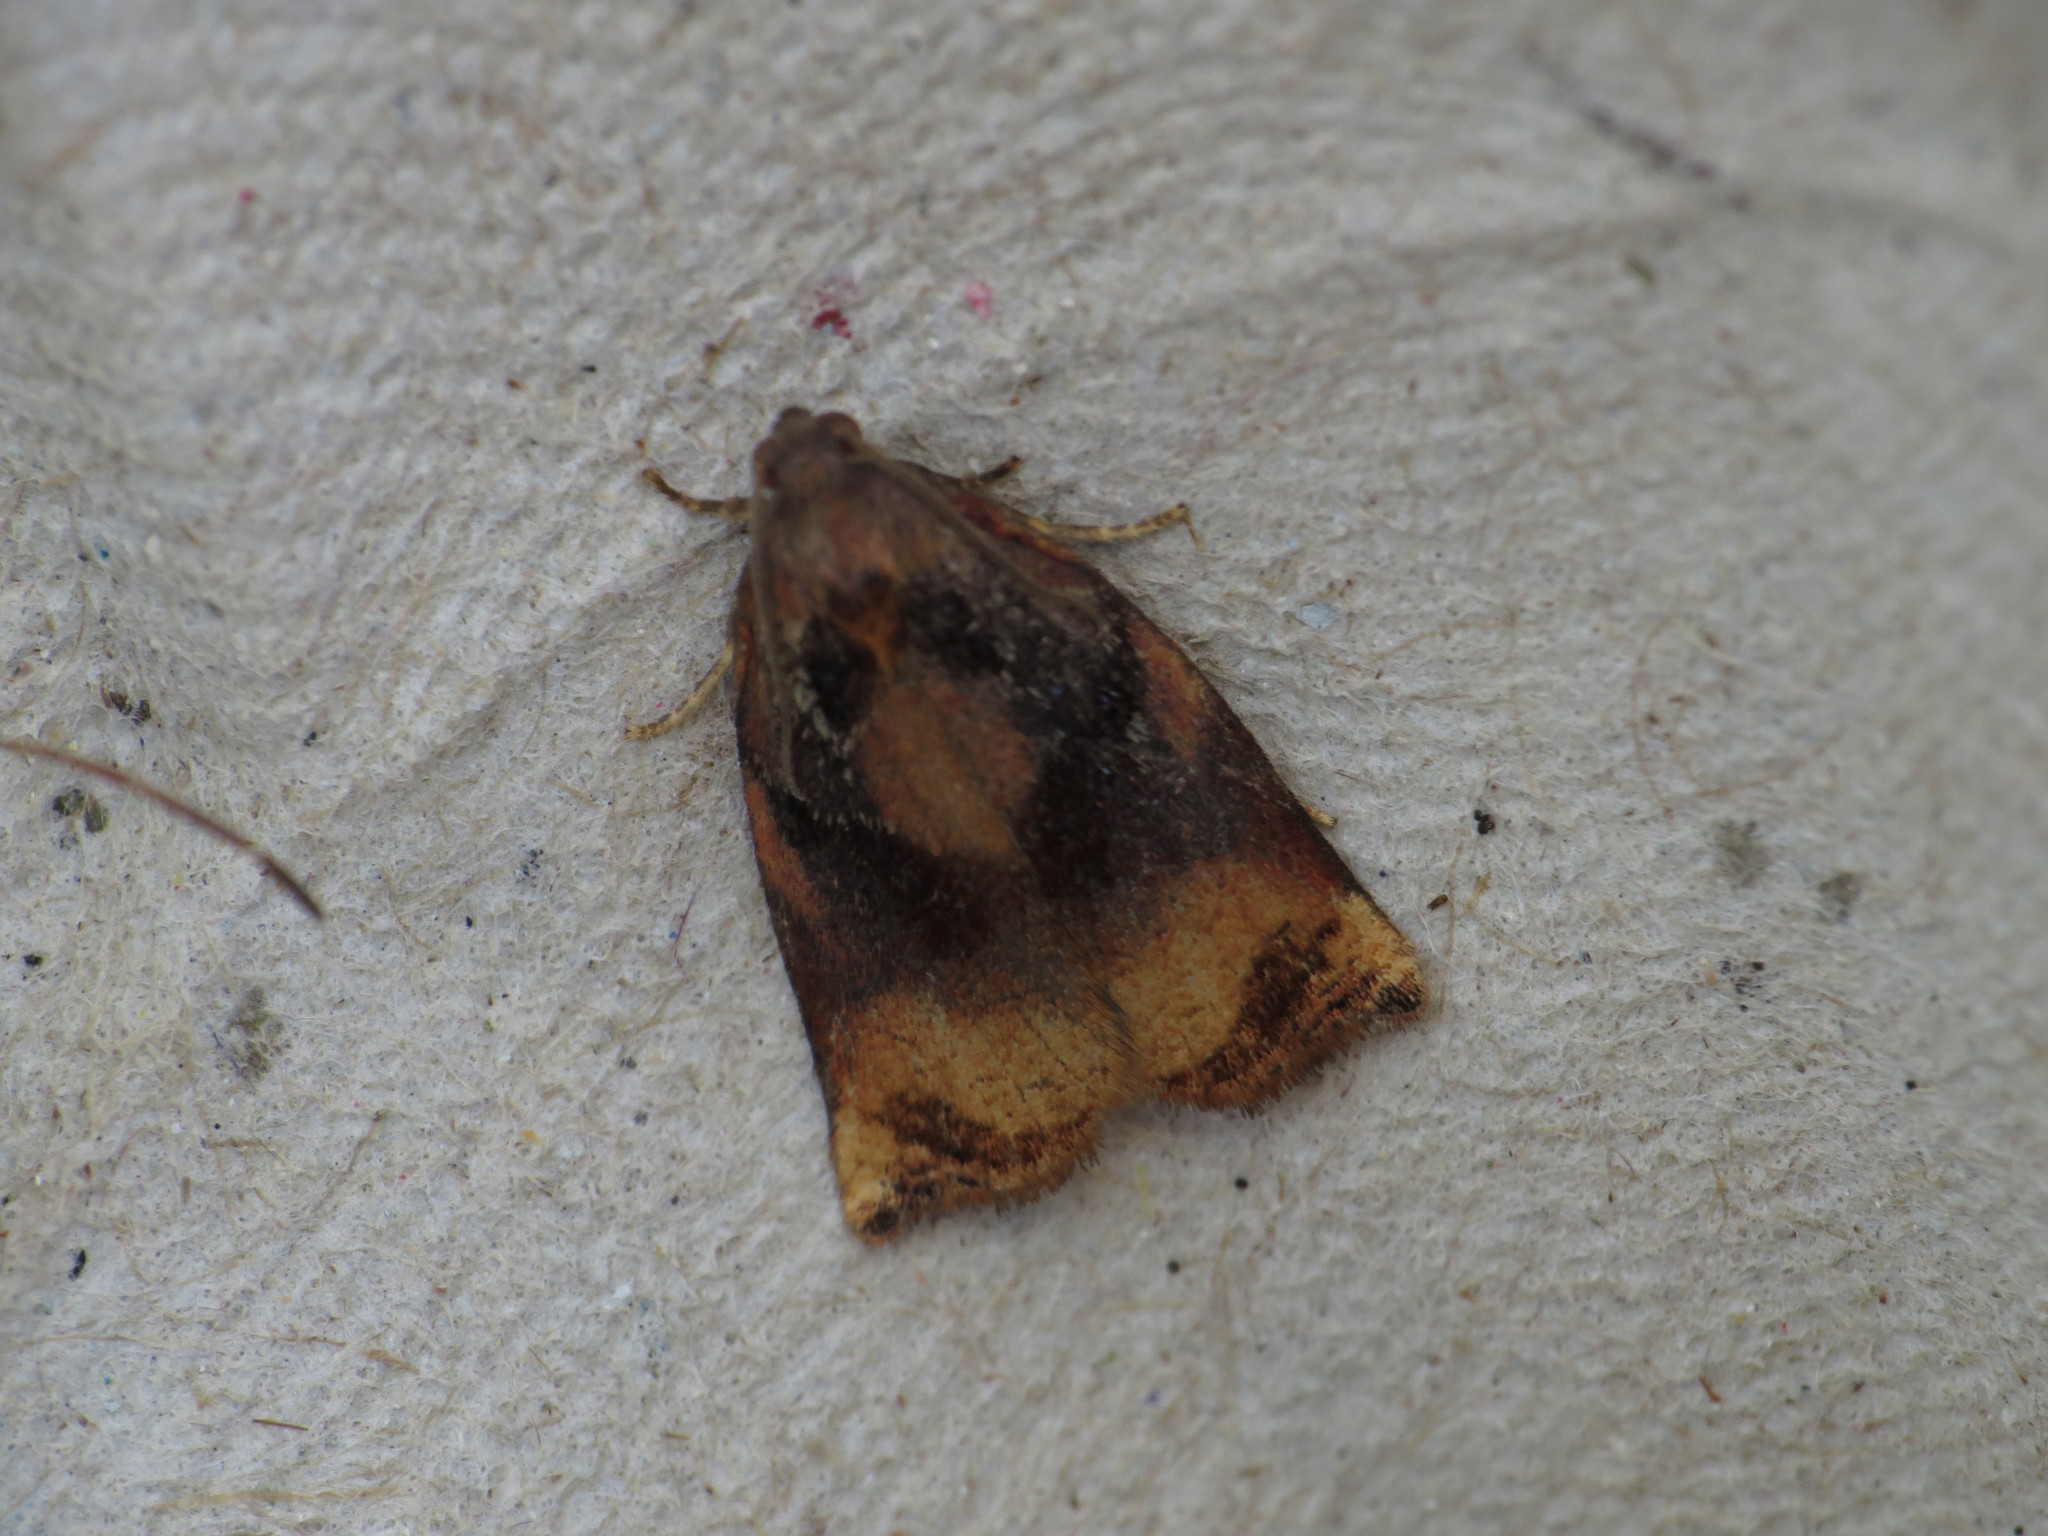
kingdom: Animalia
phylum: Arthropoda
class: Insecta
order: Lepidoptera
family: Tortricidae
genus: Archips
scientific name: Archips podana
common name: Large fruit-tree tortrix
